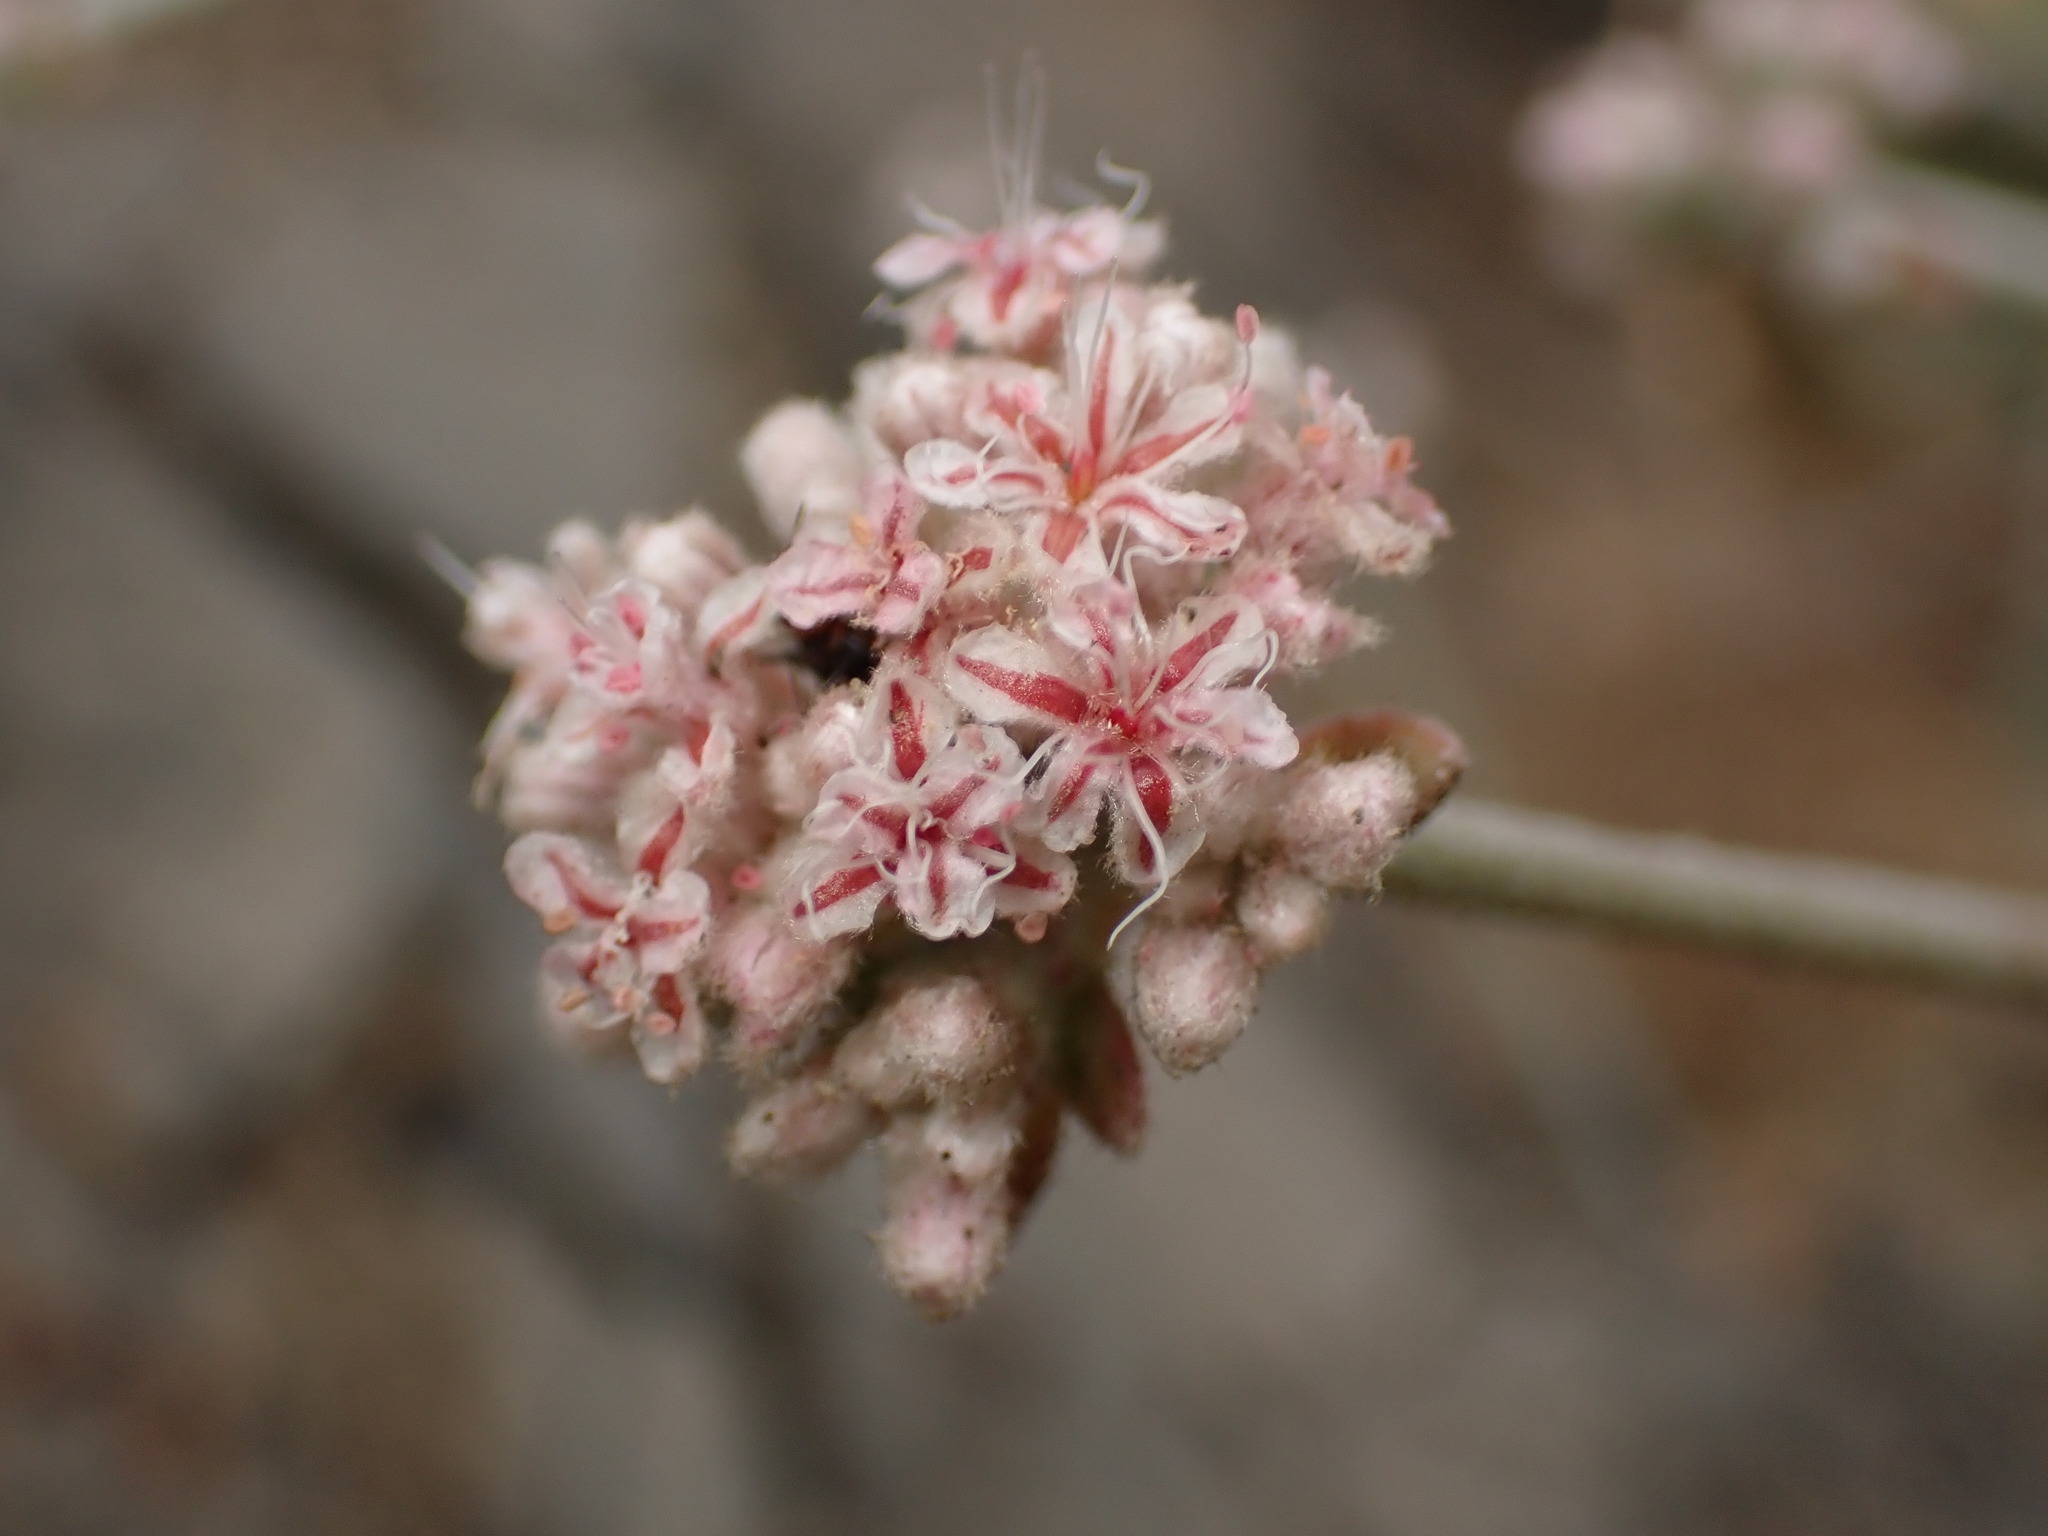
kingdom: Plantae
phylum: Tracheophyta
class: Magnoliopsida
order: Caryophyllales
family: Polygonaceae
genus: Eriogonum
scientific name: Eriogonum cinereum
